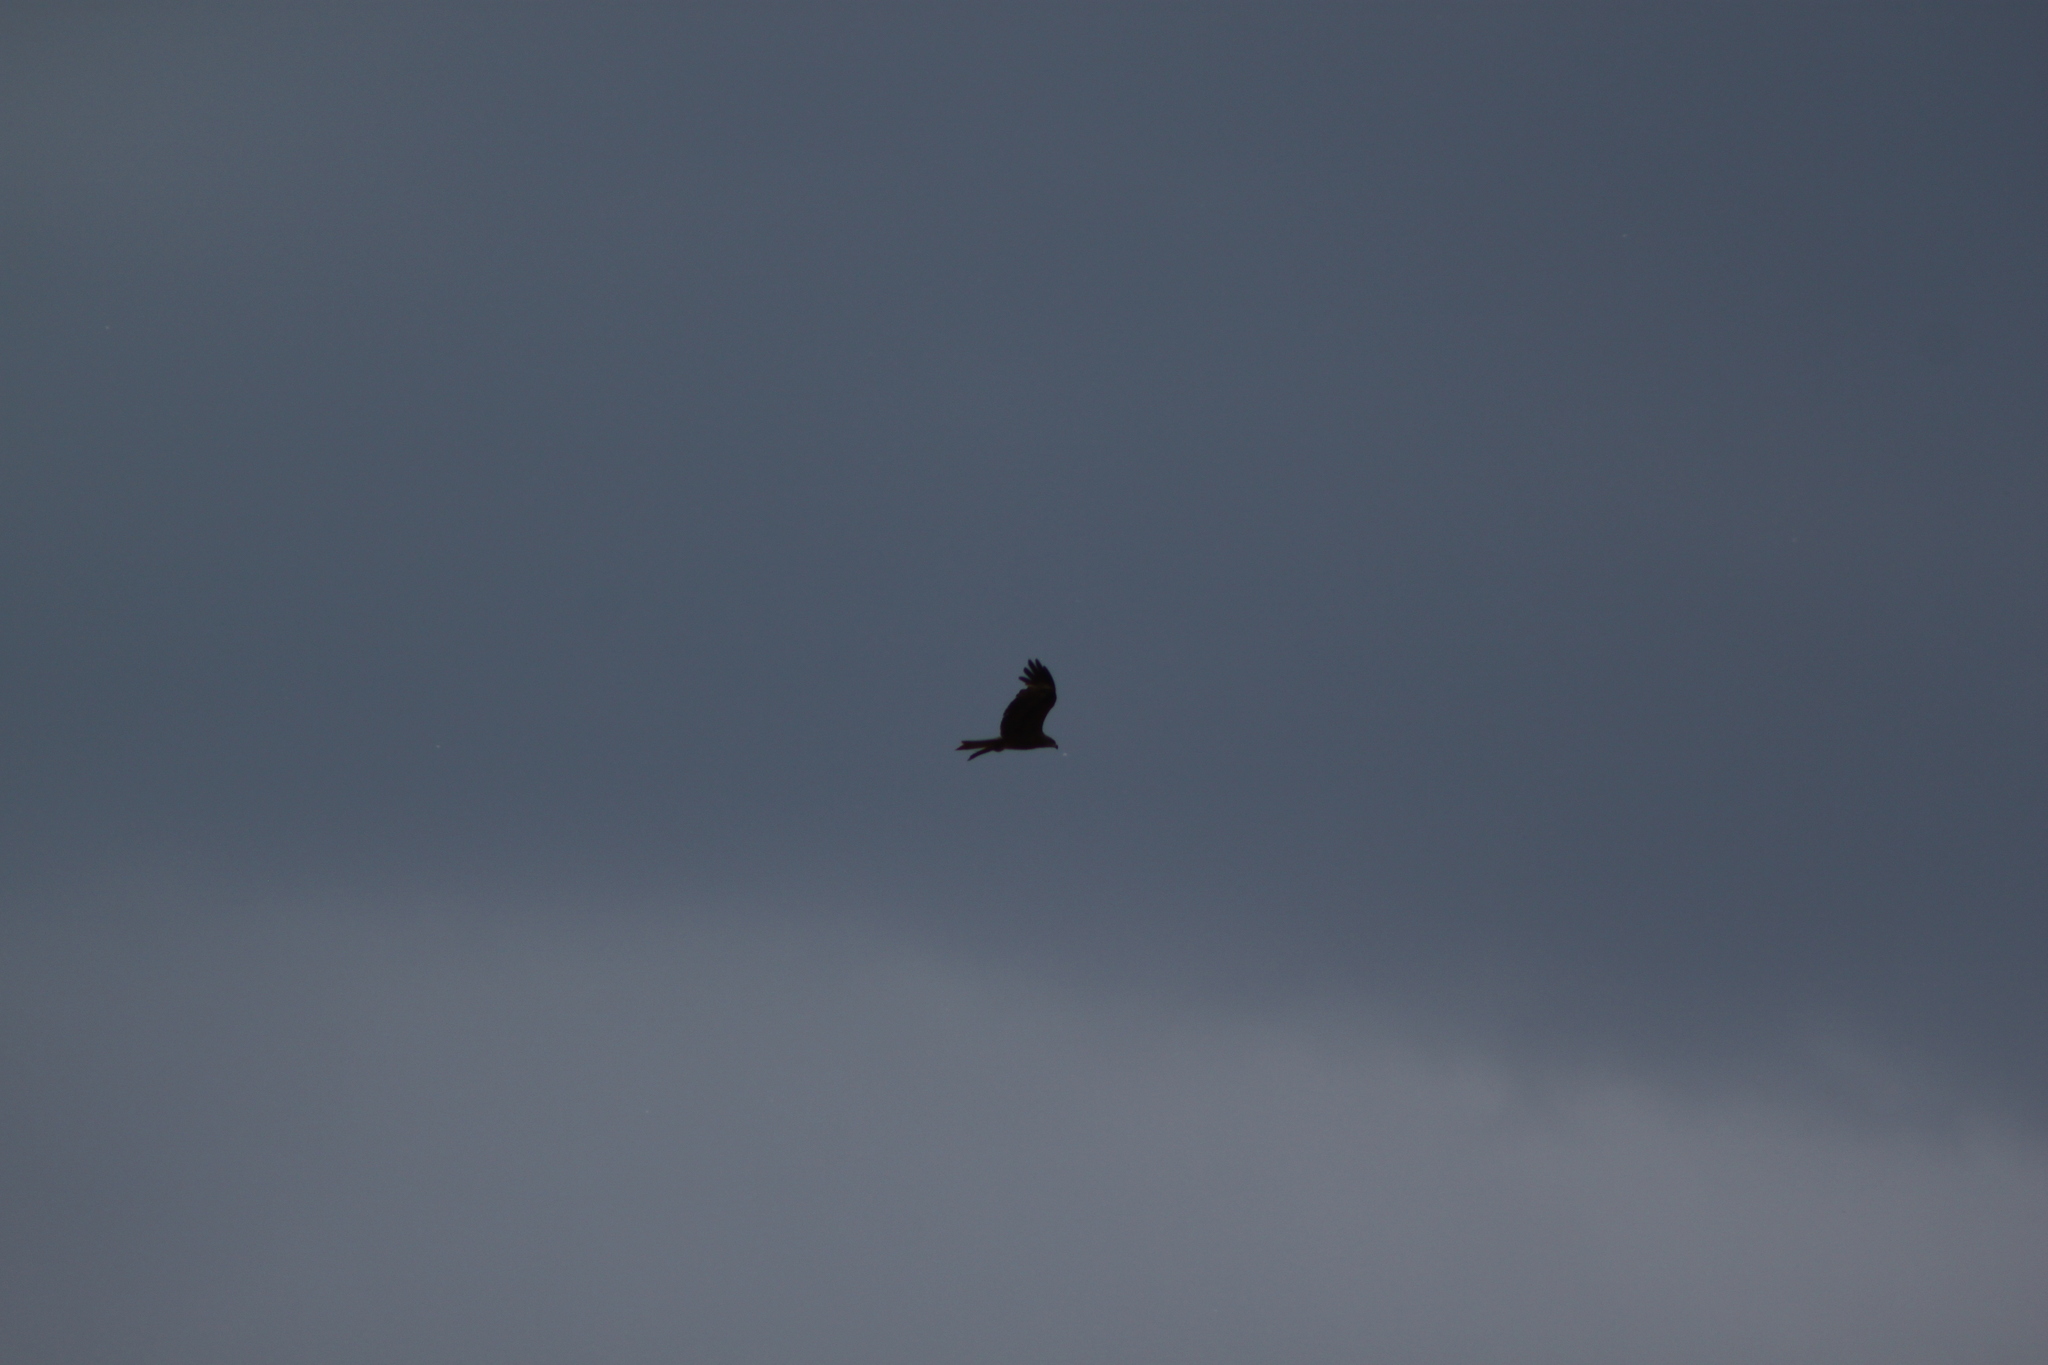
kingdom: Animalia
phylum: Chordata
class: Aves
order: Accipitriformes
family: Accipitridae
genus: Milvus
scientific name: Milvus migrans
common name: Black kite
